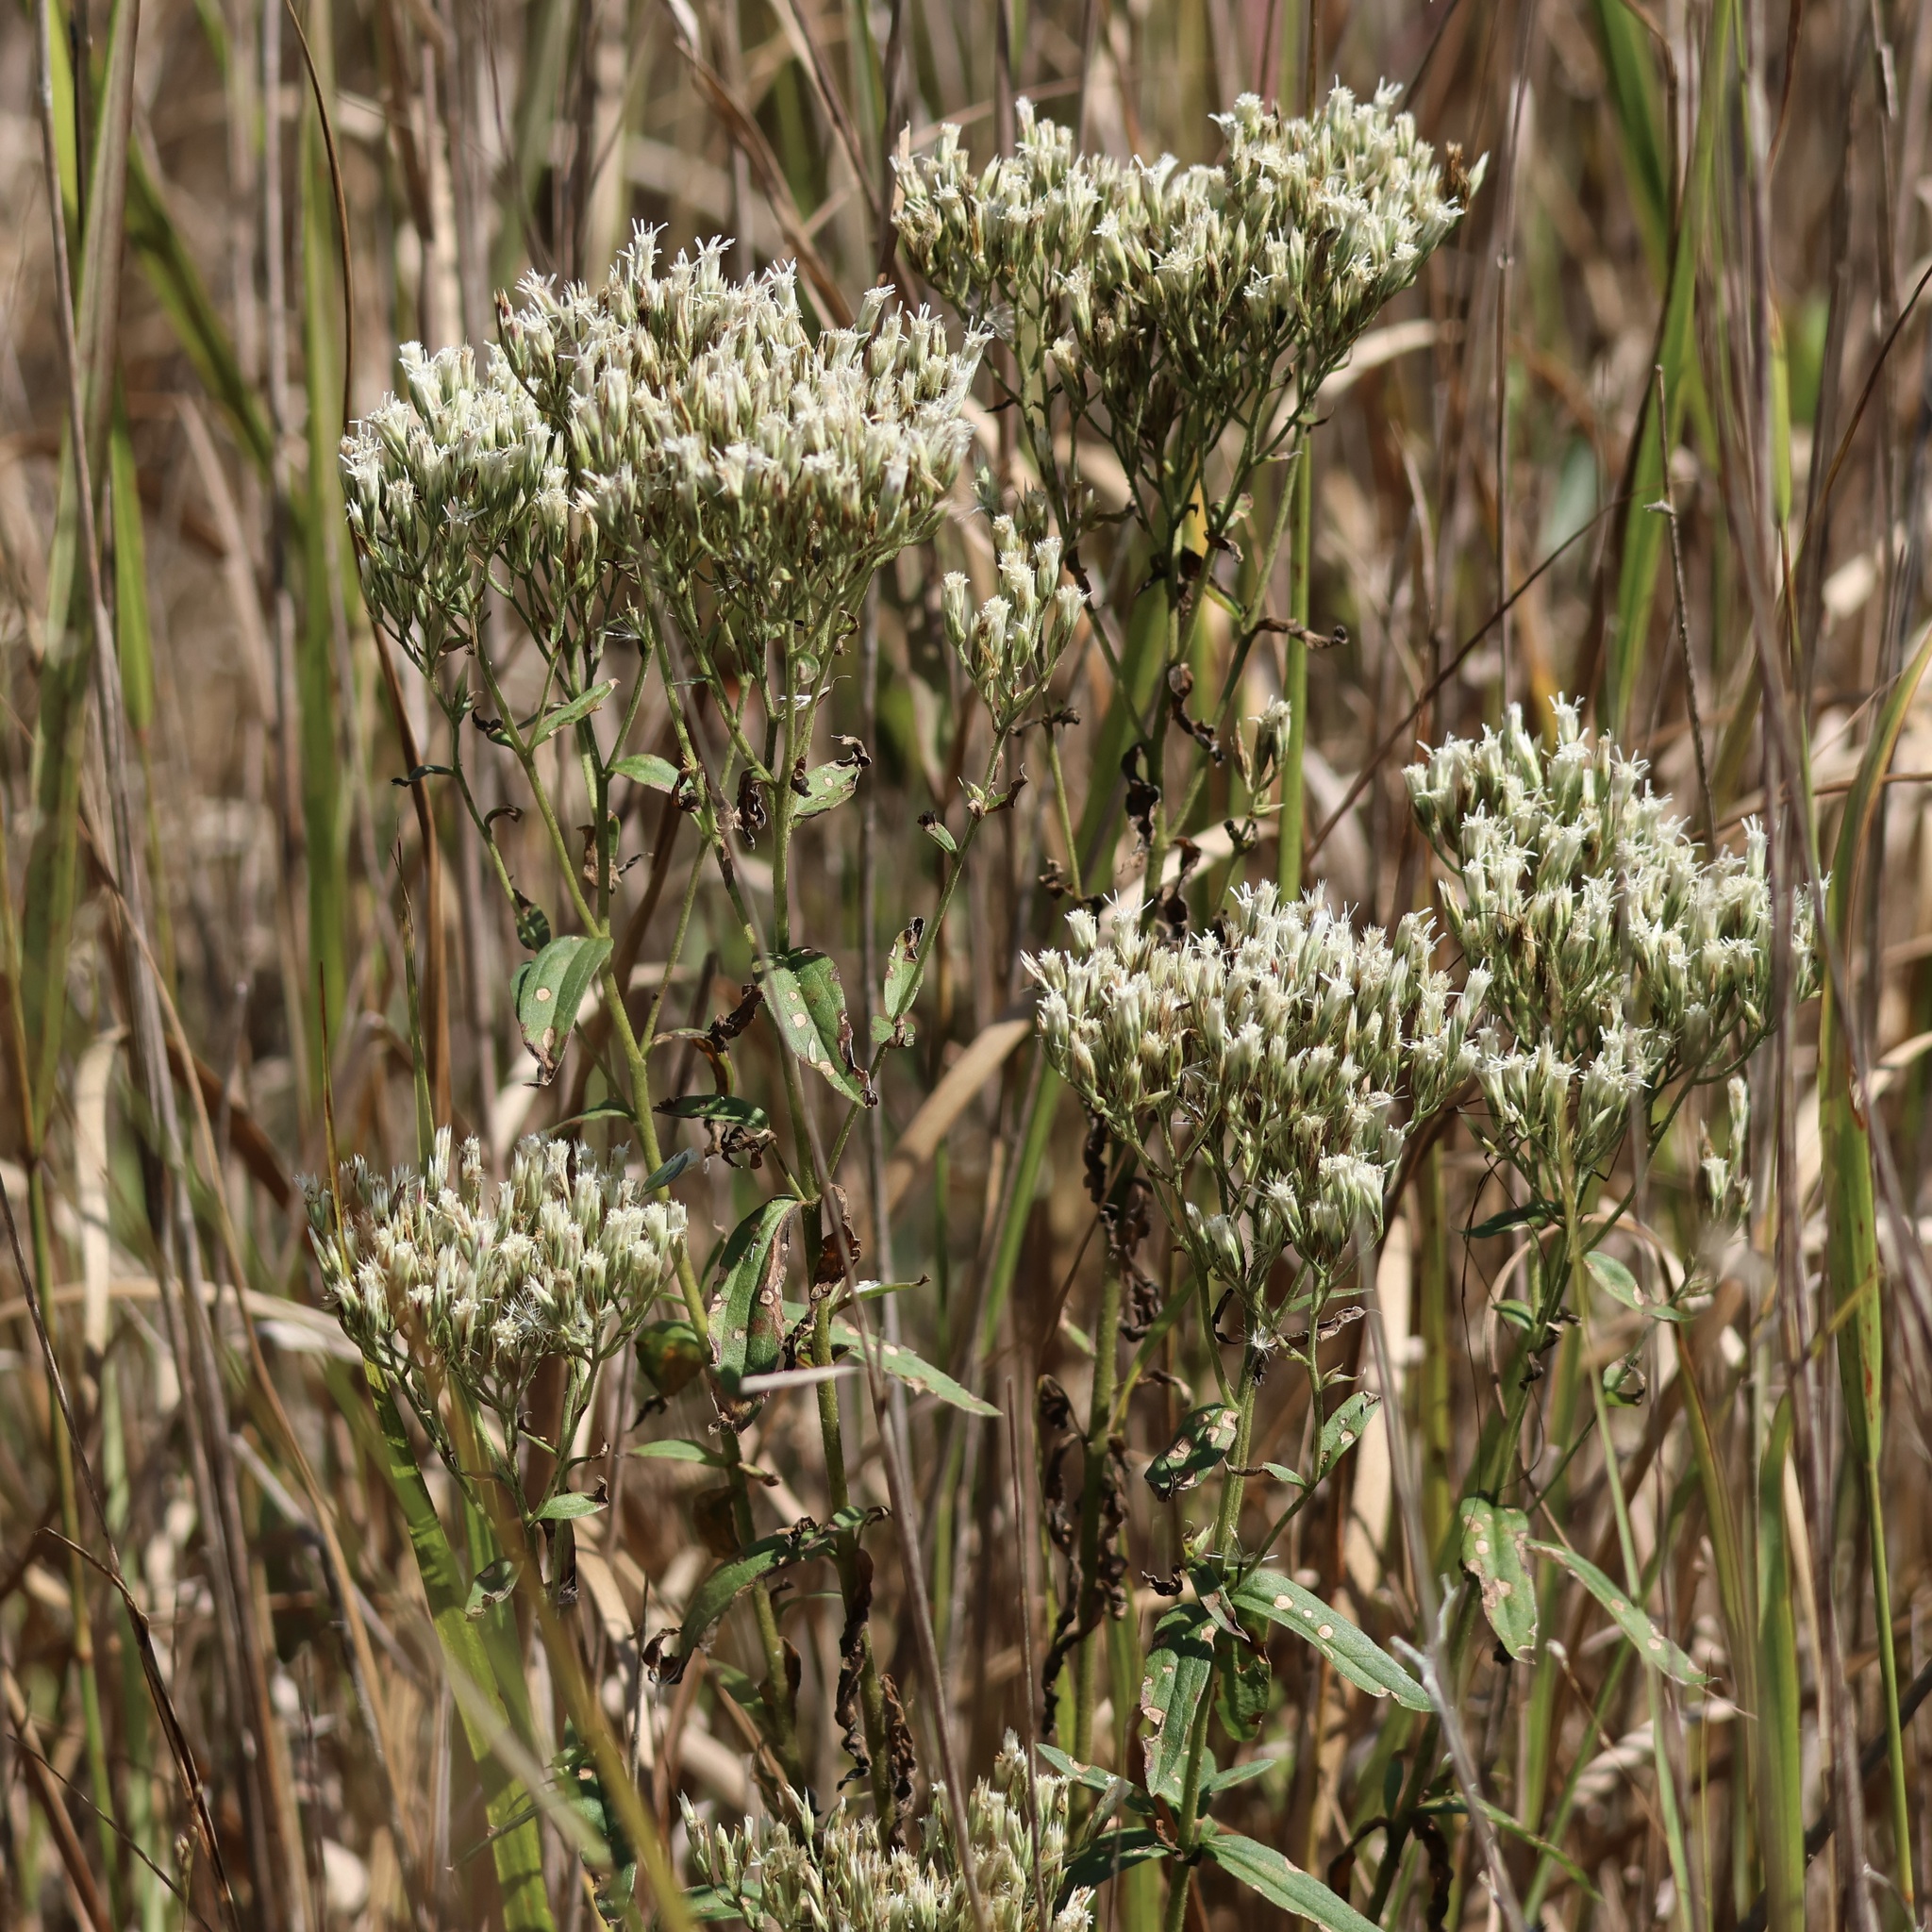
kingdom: Plantae
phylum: Tracheophyta
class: Magnoliopsida
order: Asterales
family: Asteraceae
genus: Eupatorium
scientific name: Eupatorium subvenosum
